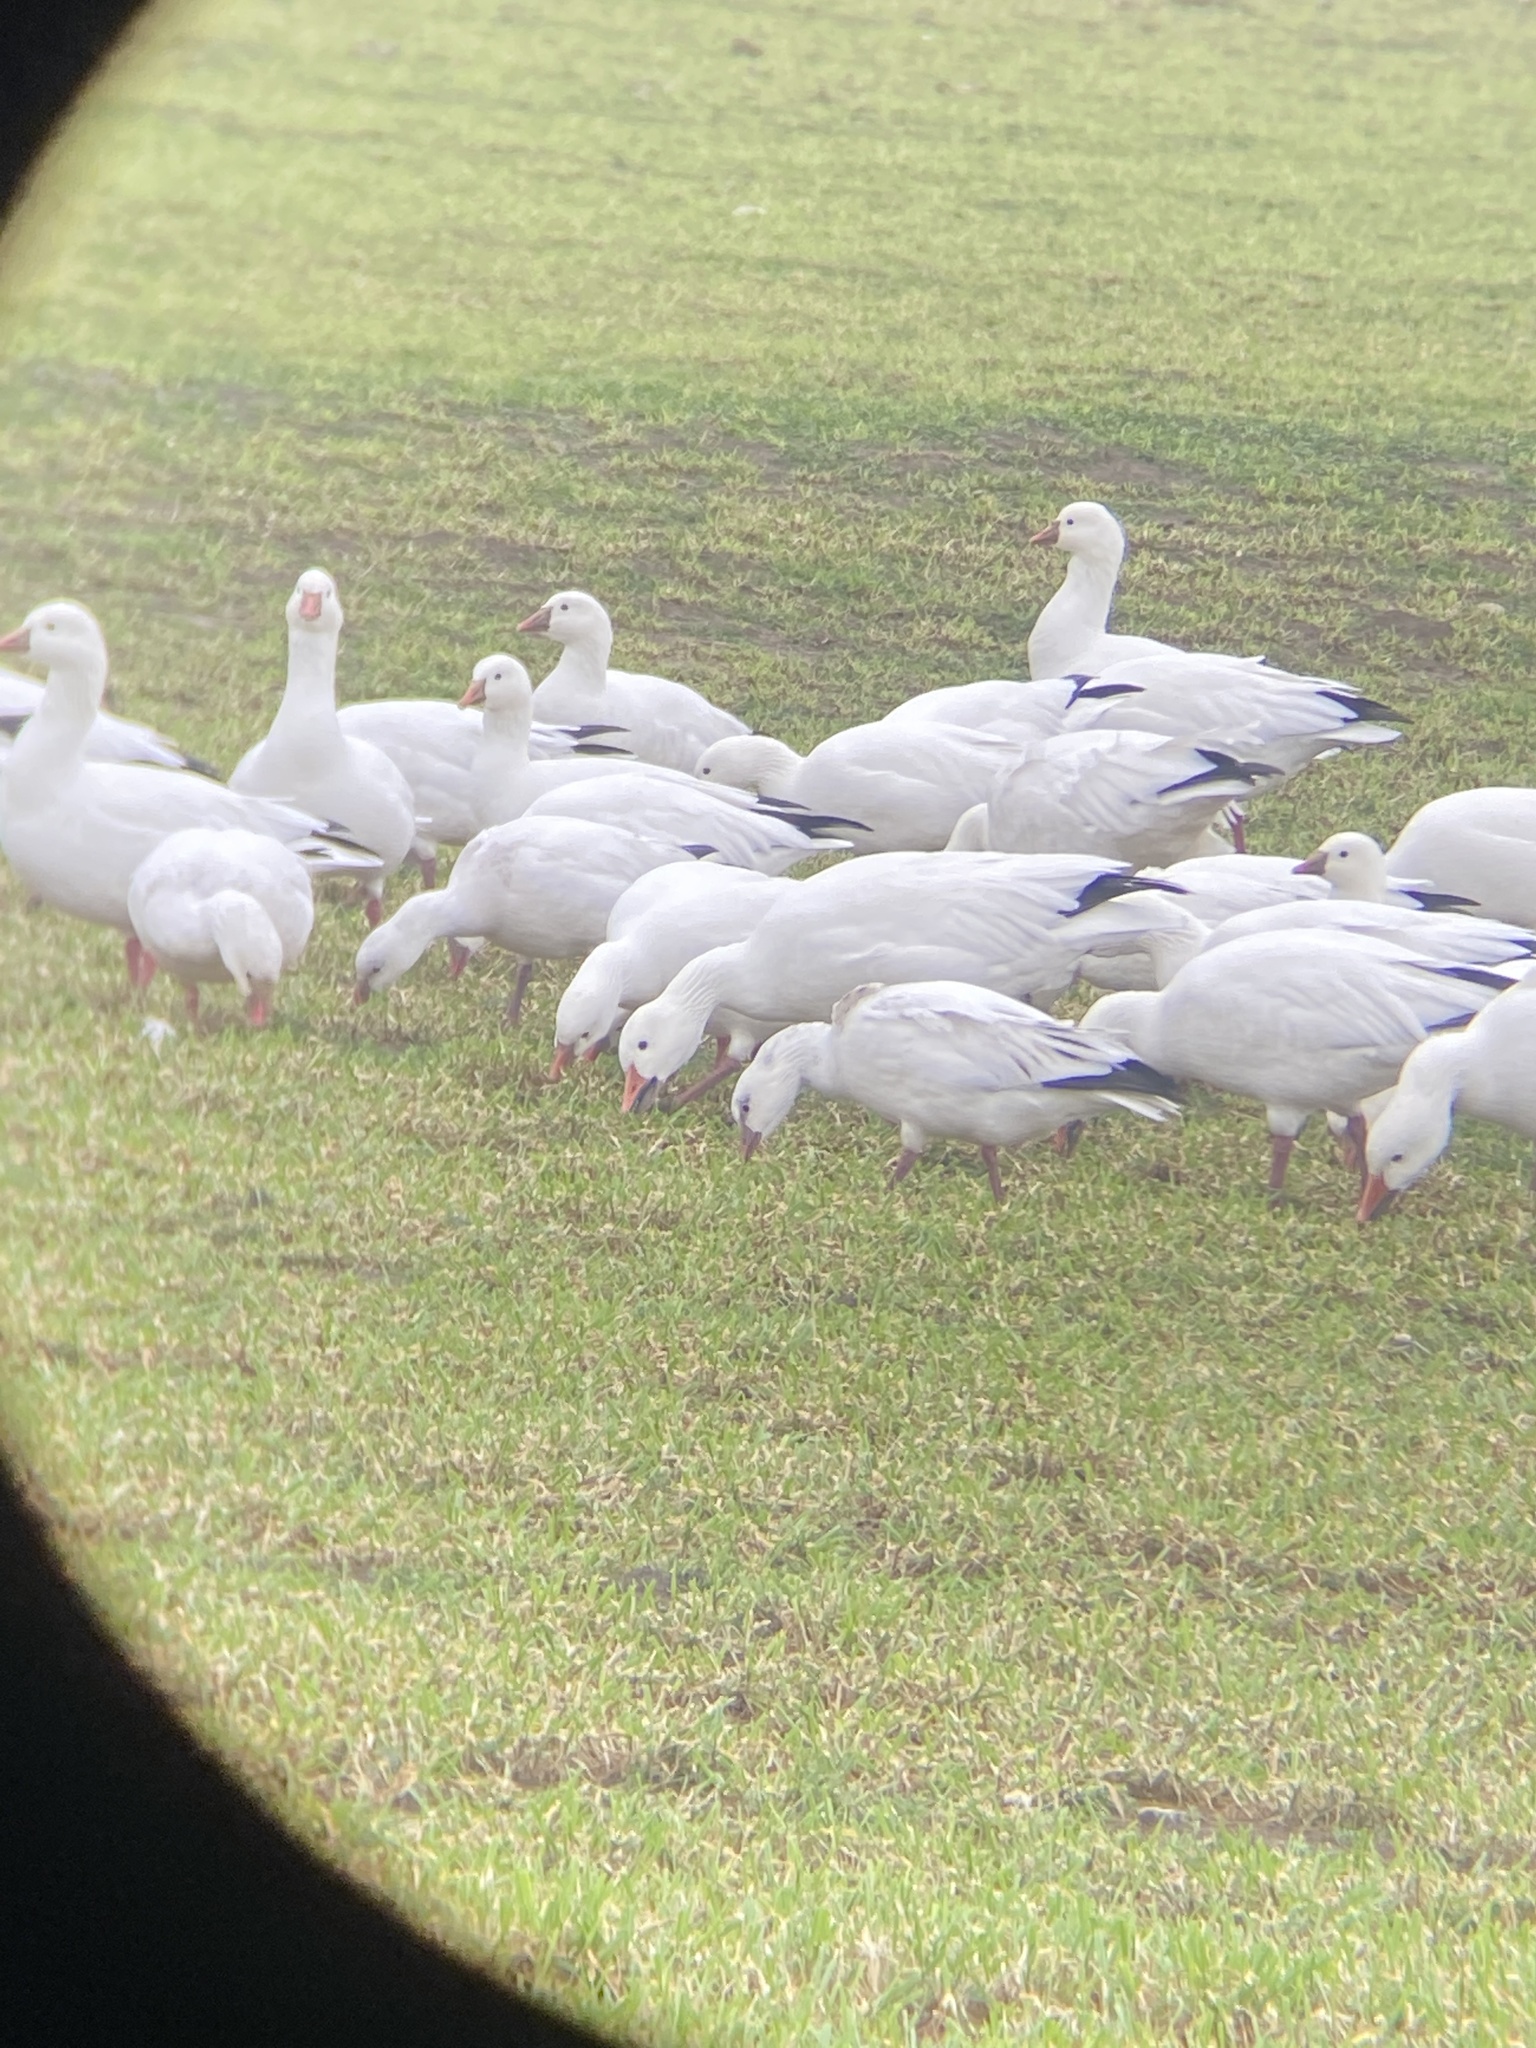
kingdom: Animalia
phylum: Chordata
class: Aves
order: Anseriformes
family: Anatidae
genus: Anser
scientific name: Anser caerulescens
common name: Snow goose
